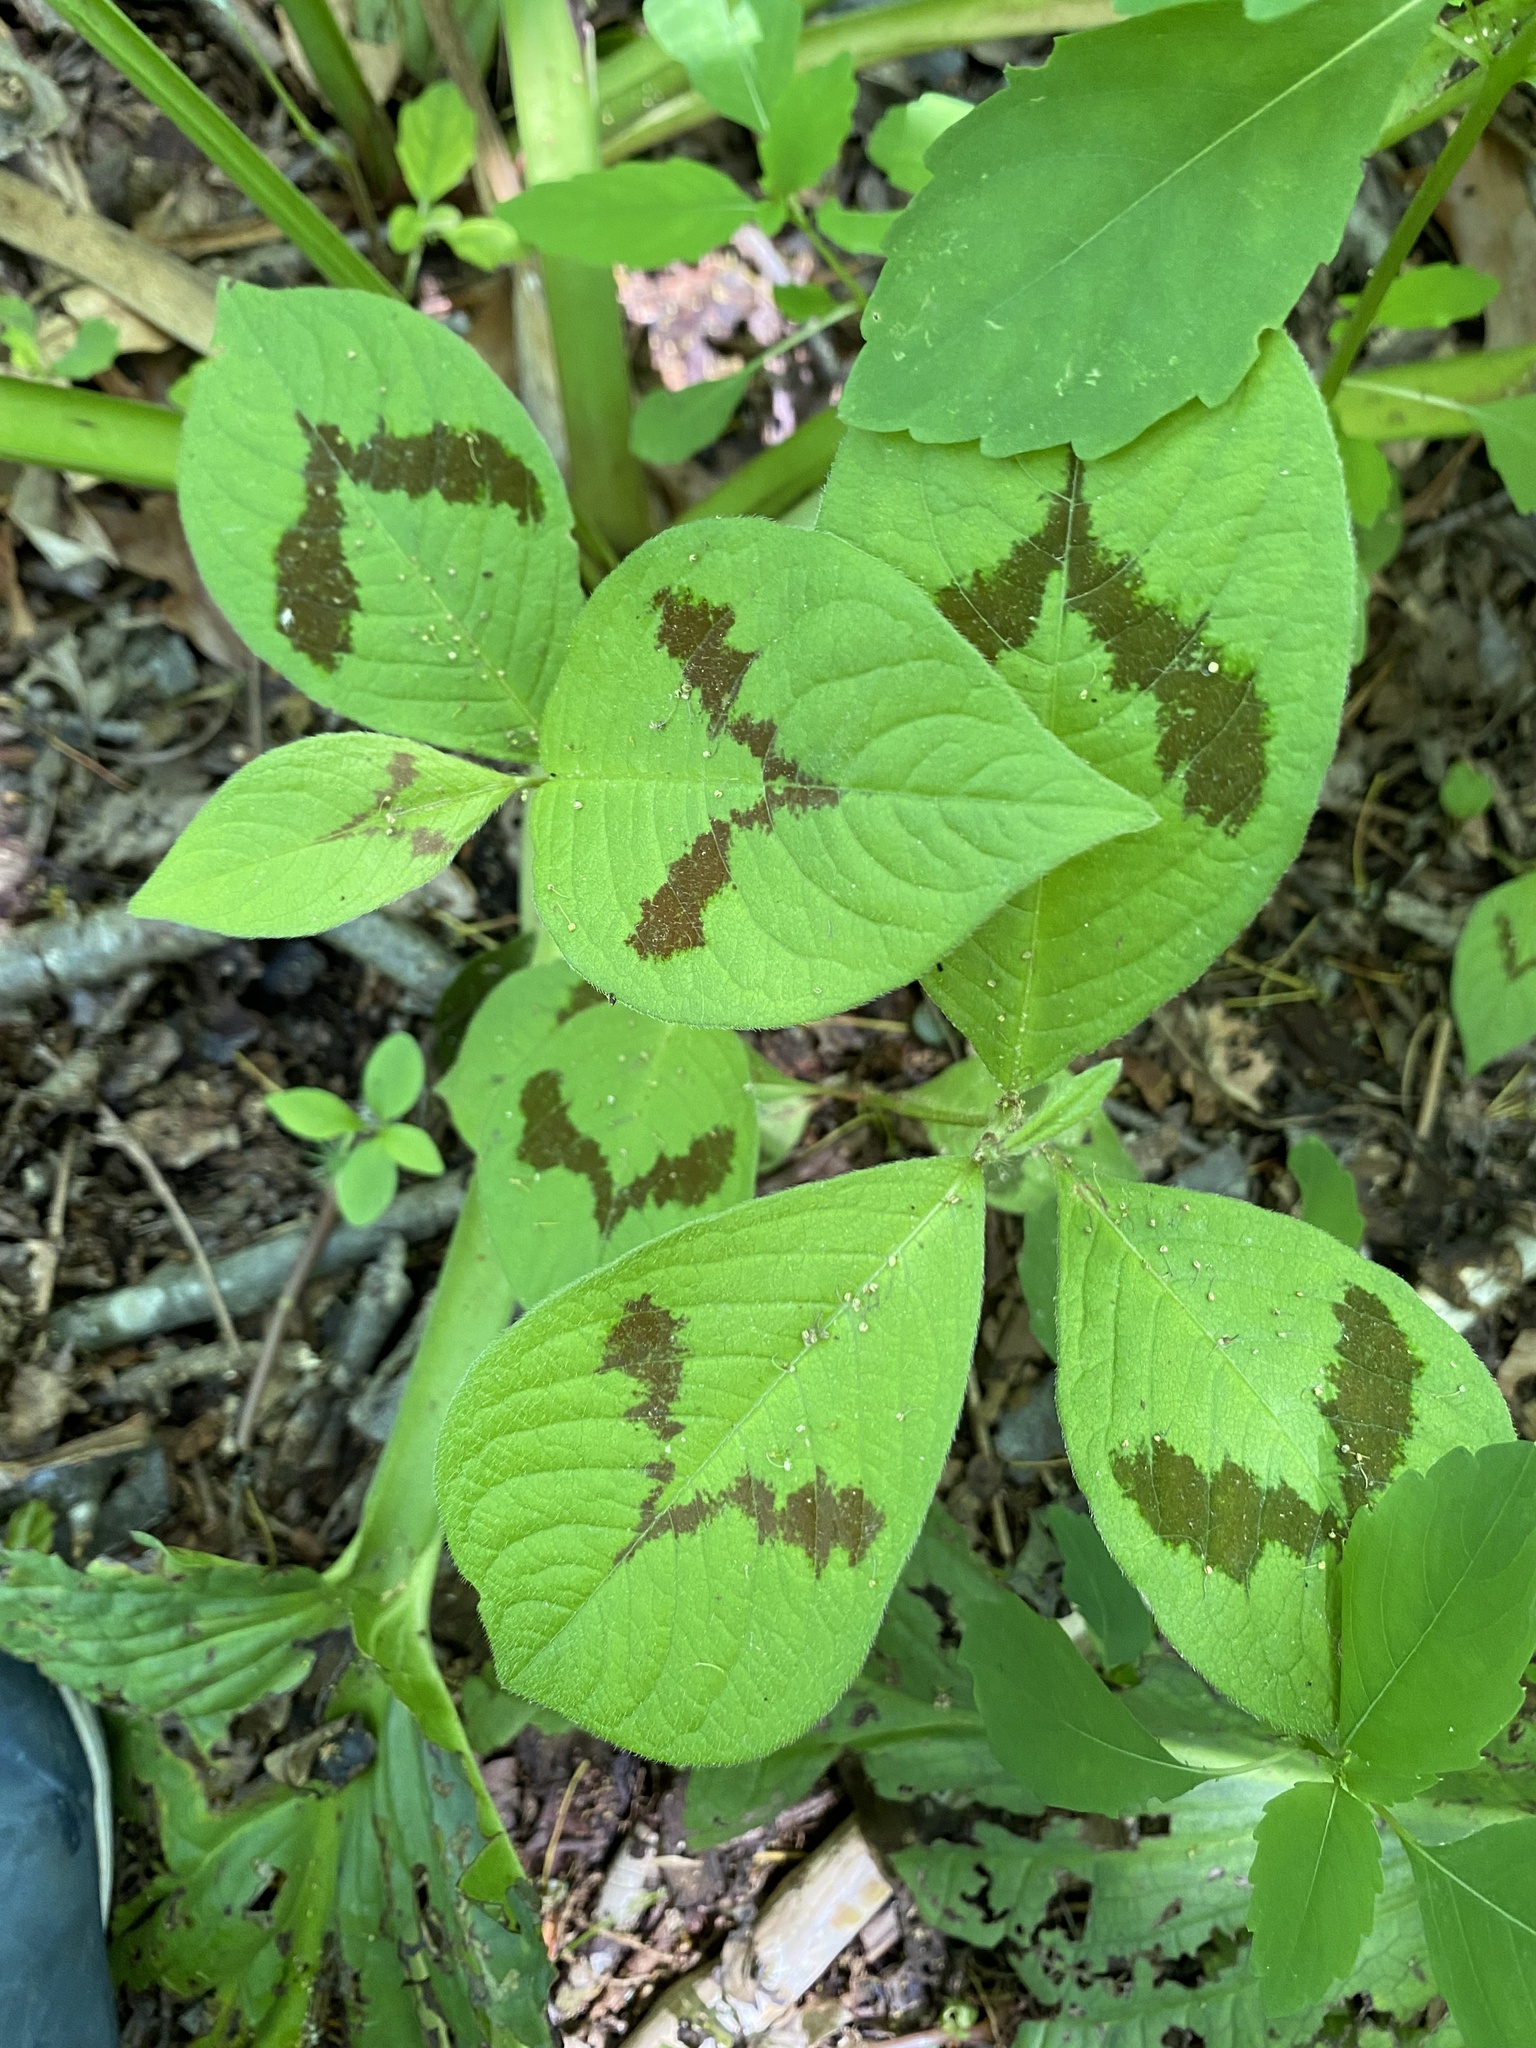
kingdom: Plantae
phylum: Tracheophyta
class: Magnoliopsida
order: Caryophyllales
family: Polygonaceae
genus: Persicaria
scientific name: Persicaria filiformis
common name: Asian jumpseed
